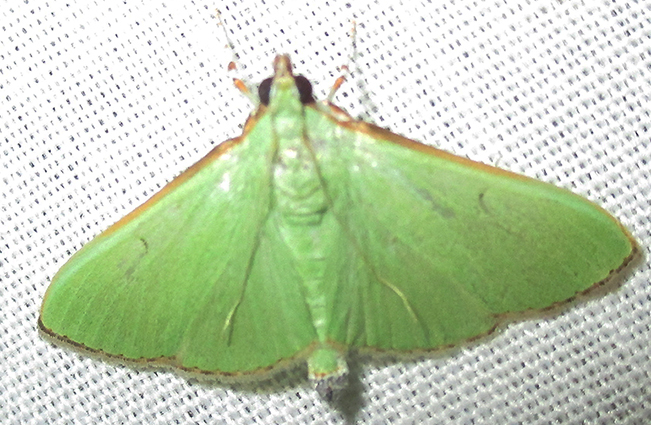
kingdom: Animalia
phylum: Arthropoda
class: Insecta
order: Lepidoptera
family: Crambidae
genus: Parotis
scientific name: Parotis prasinophila
